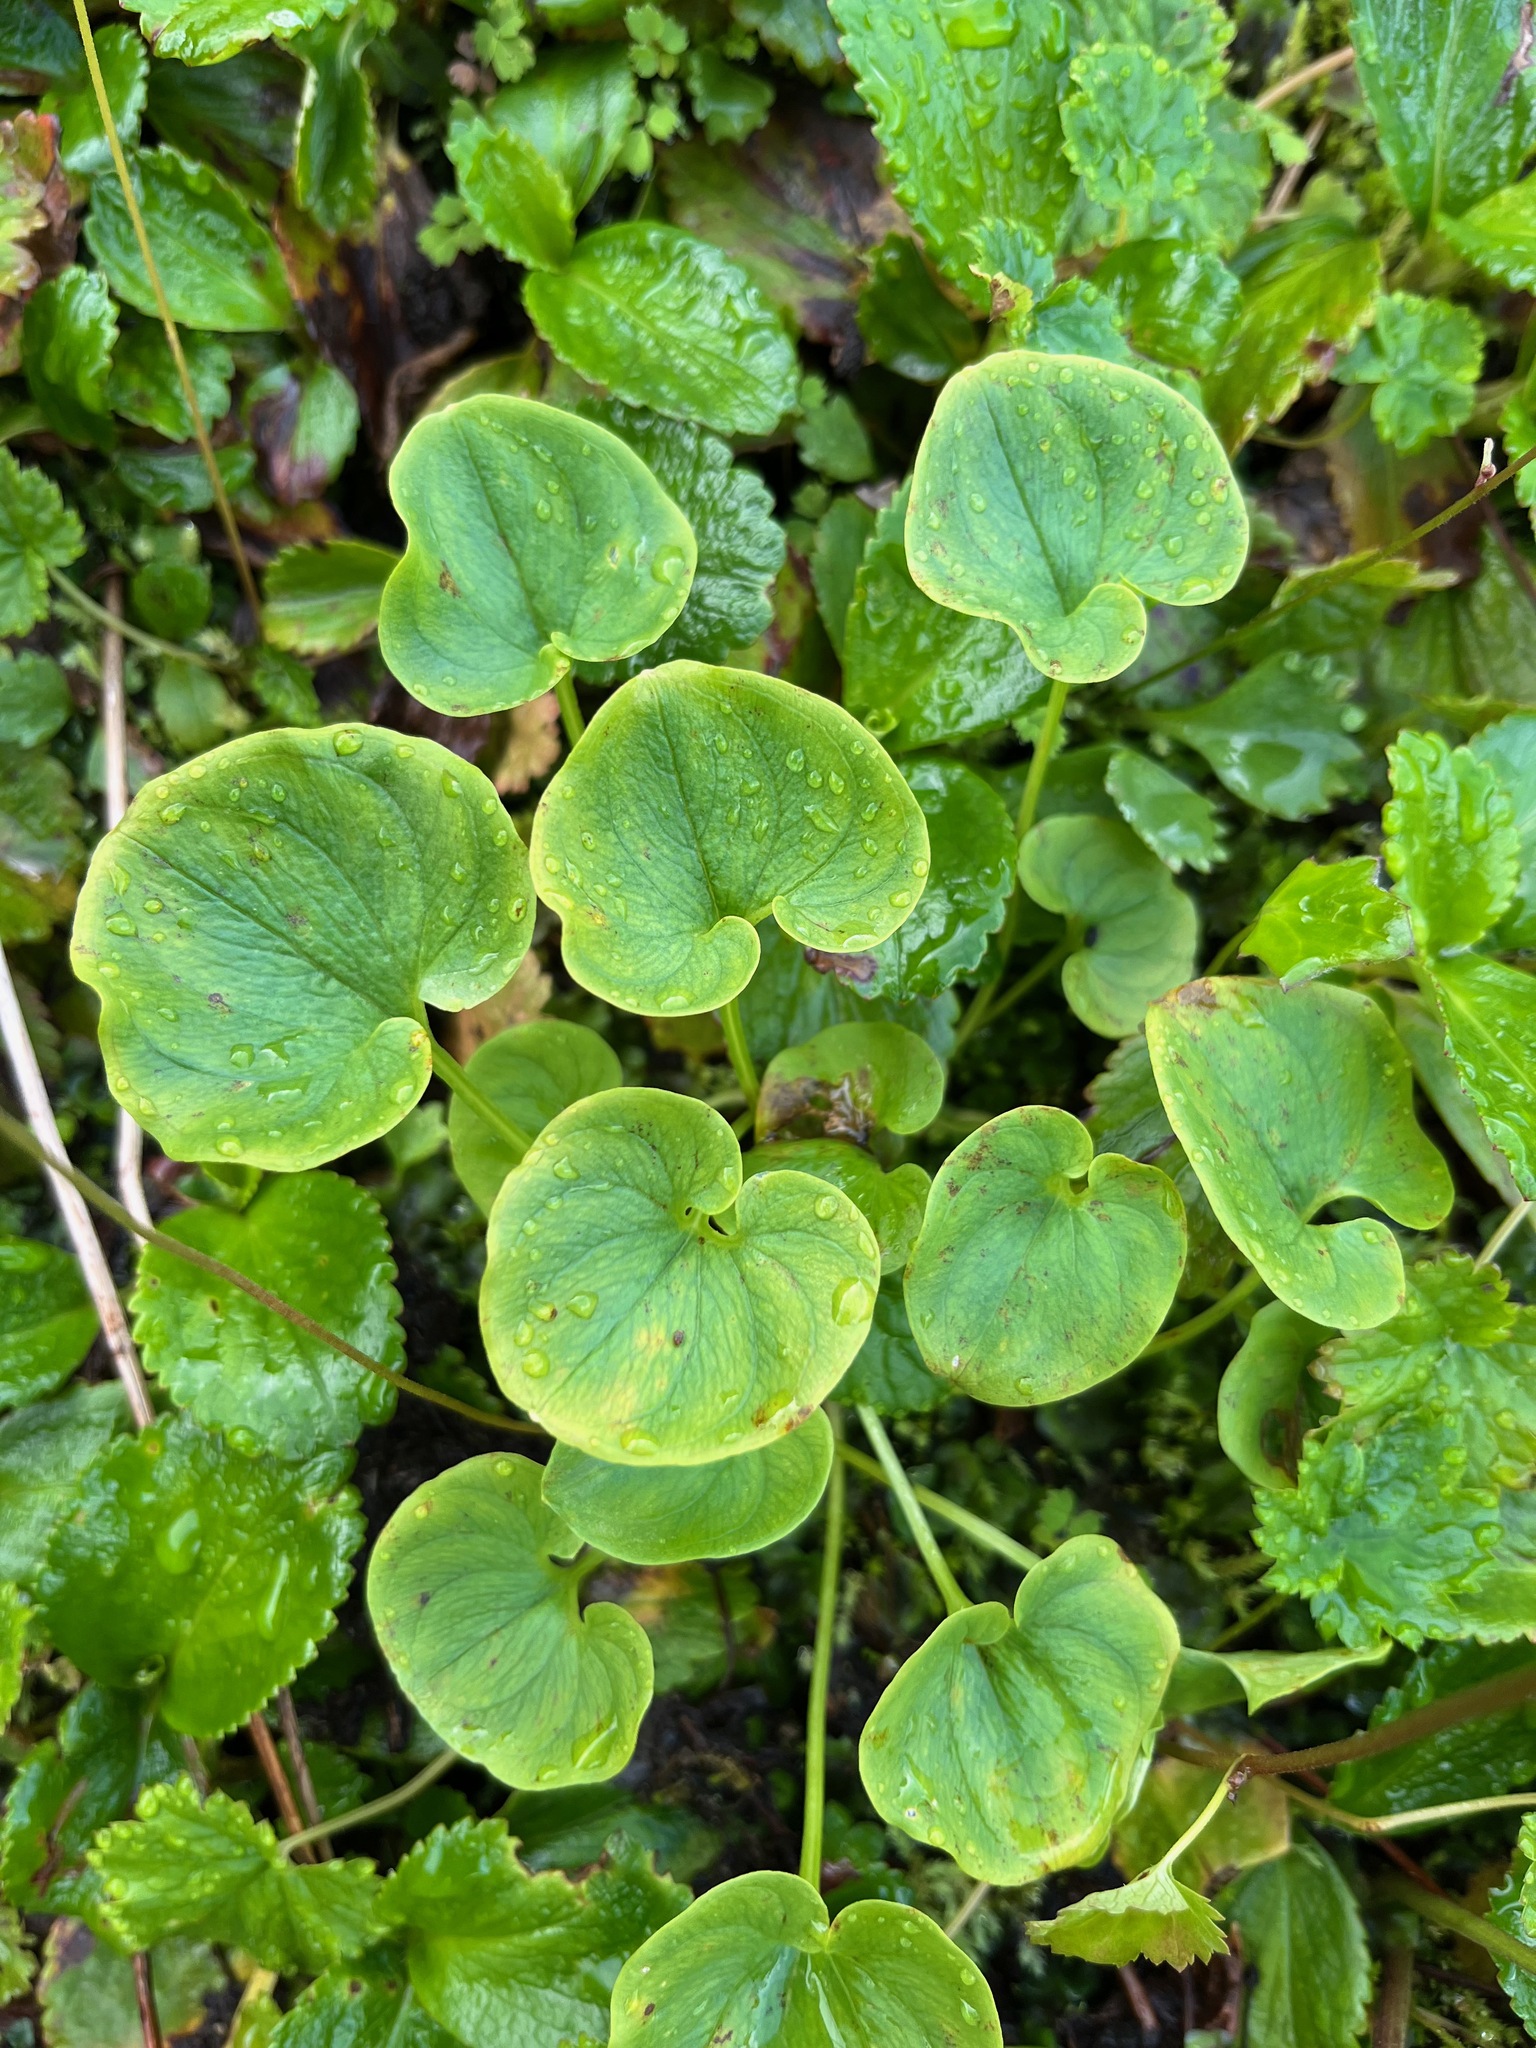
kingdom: Plantae
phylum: Tracheophyta
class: Magnoliopsida
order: Celastrales
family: Parnassiaceae
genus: Parnassia
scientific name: Parnassia fimbriata
